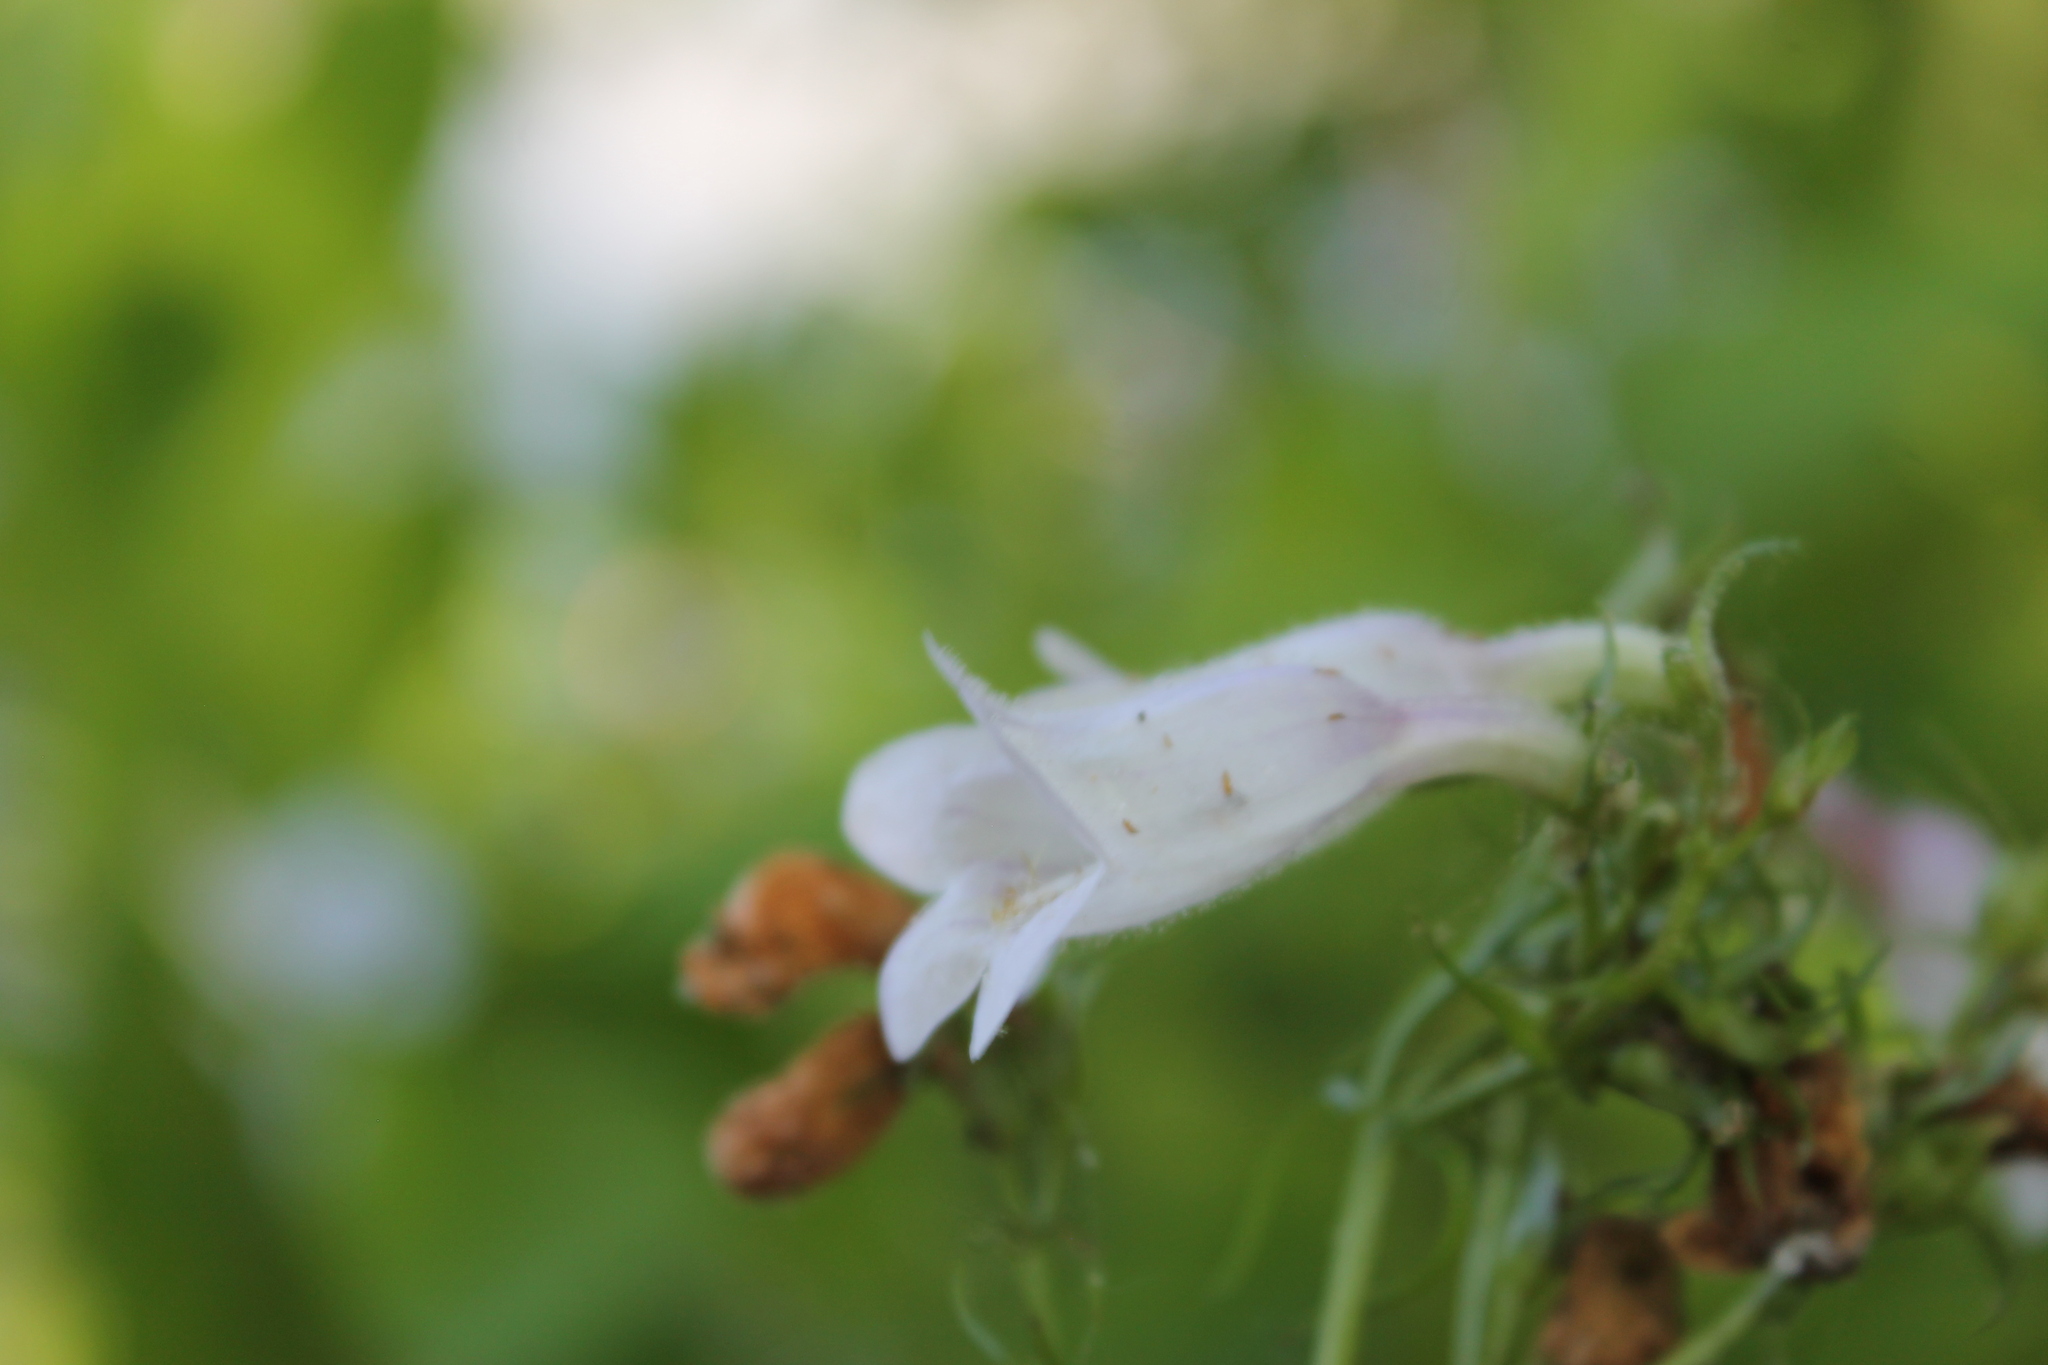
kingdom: Plantae
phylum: Tracheophyta
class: Magnoliopsida
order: Lamiales
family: Plantaginaceae
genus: Penstemon
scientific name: Penstemon calycosus
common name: Long-sepal beardtongue
